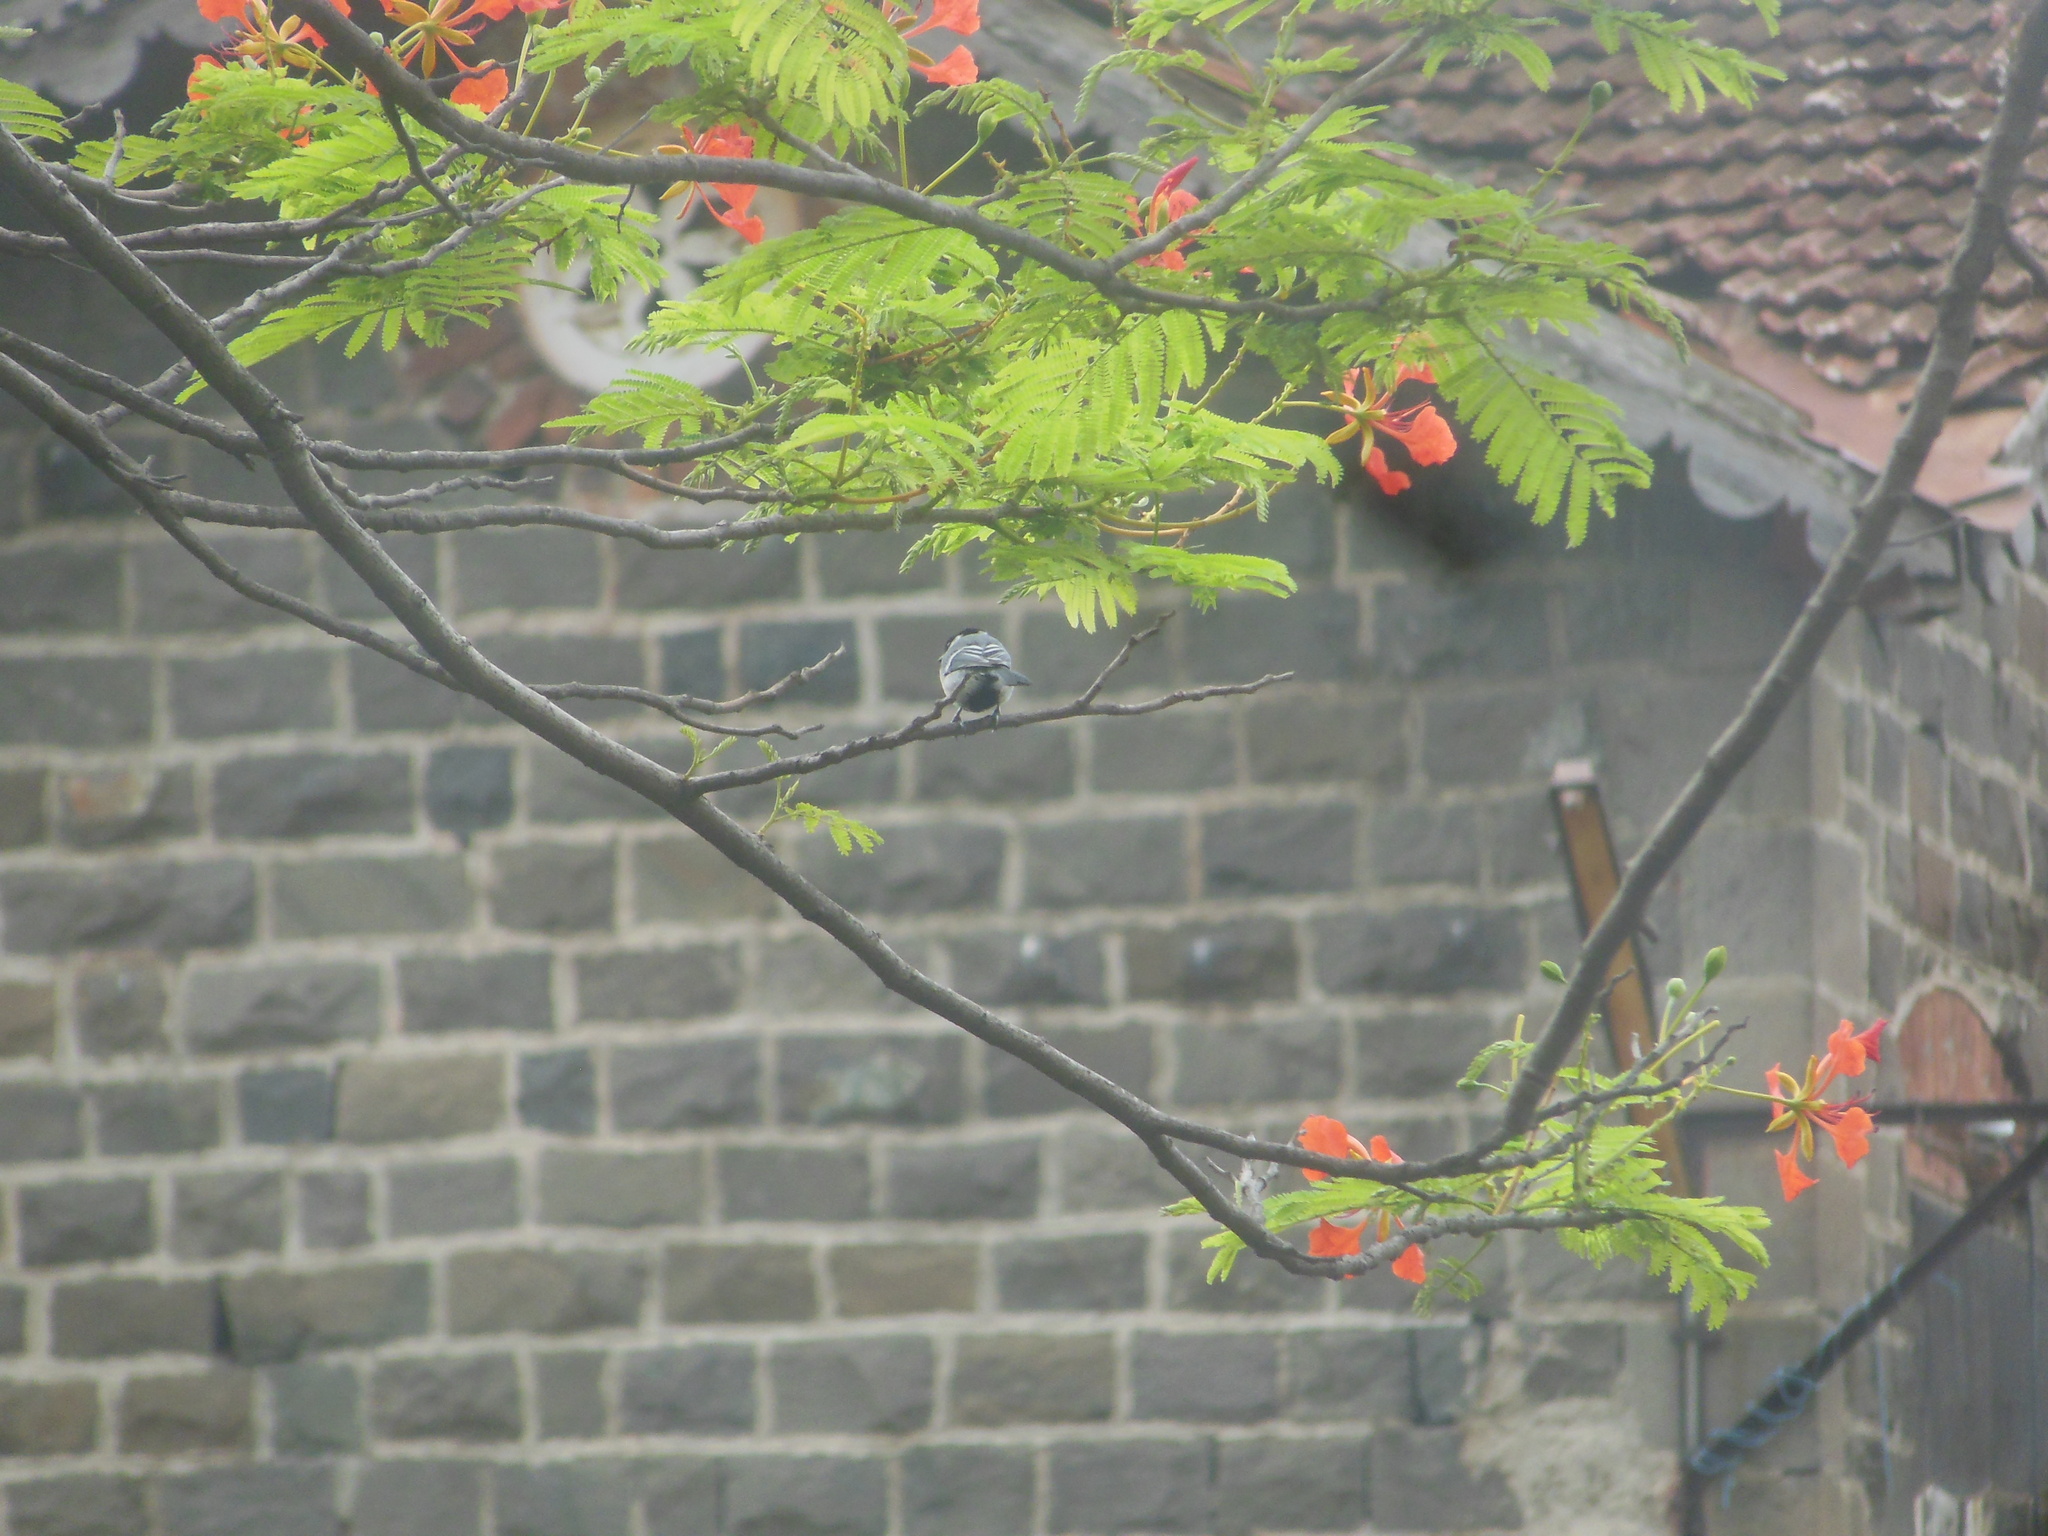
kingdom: Animalia
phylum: Chordata
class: Aves
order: Passeriformes
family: Paridae
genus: Parus
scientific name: Parus cinereus
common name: Cinereous tit
